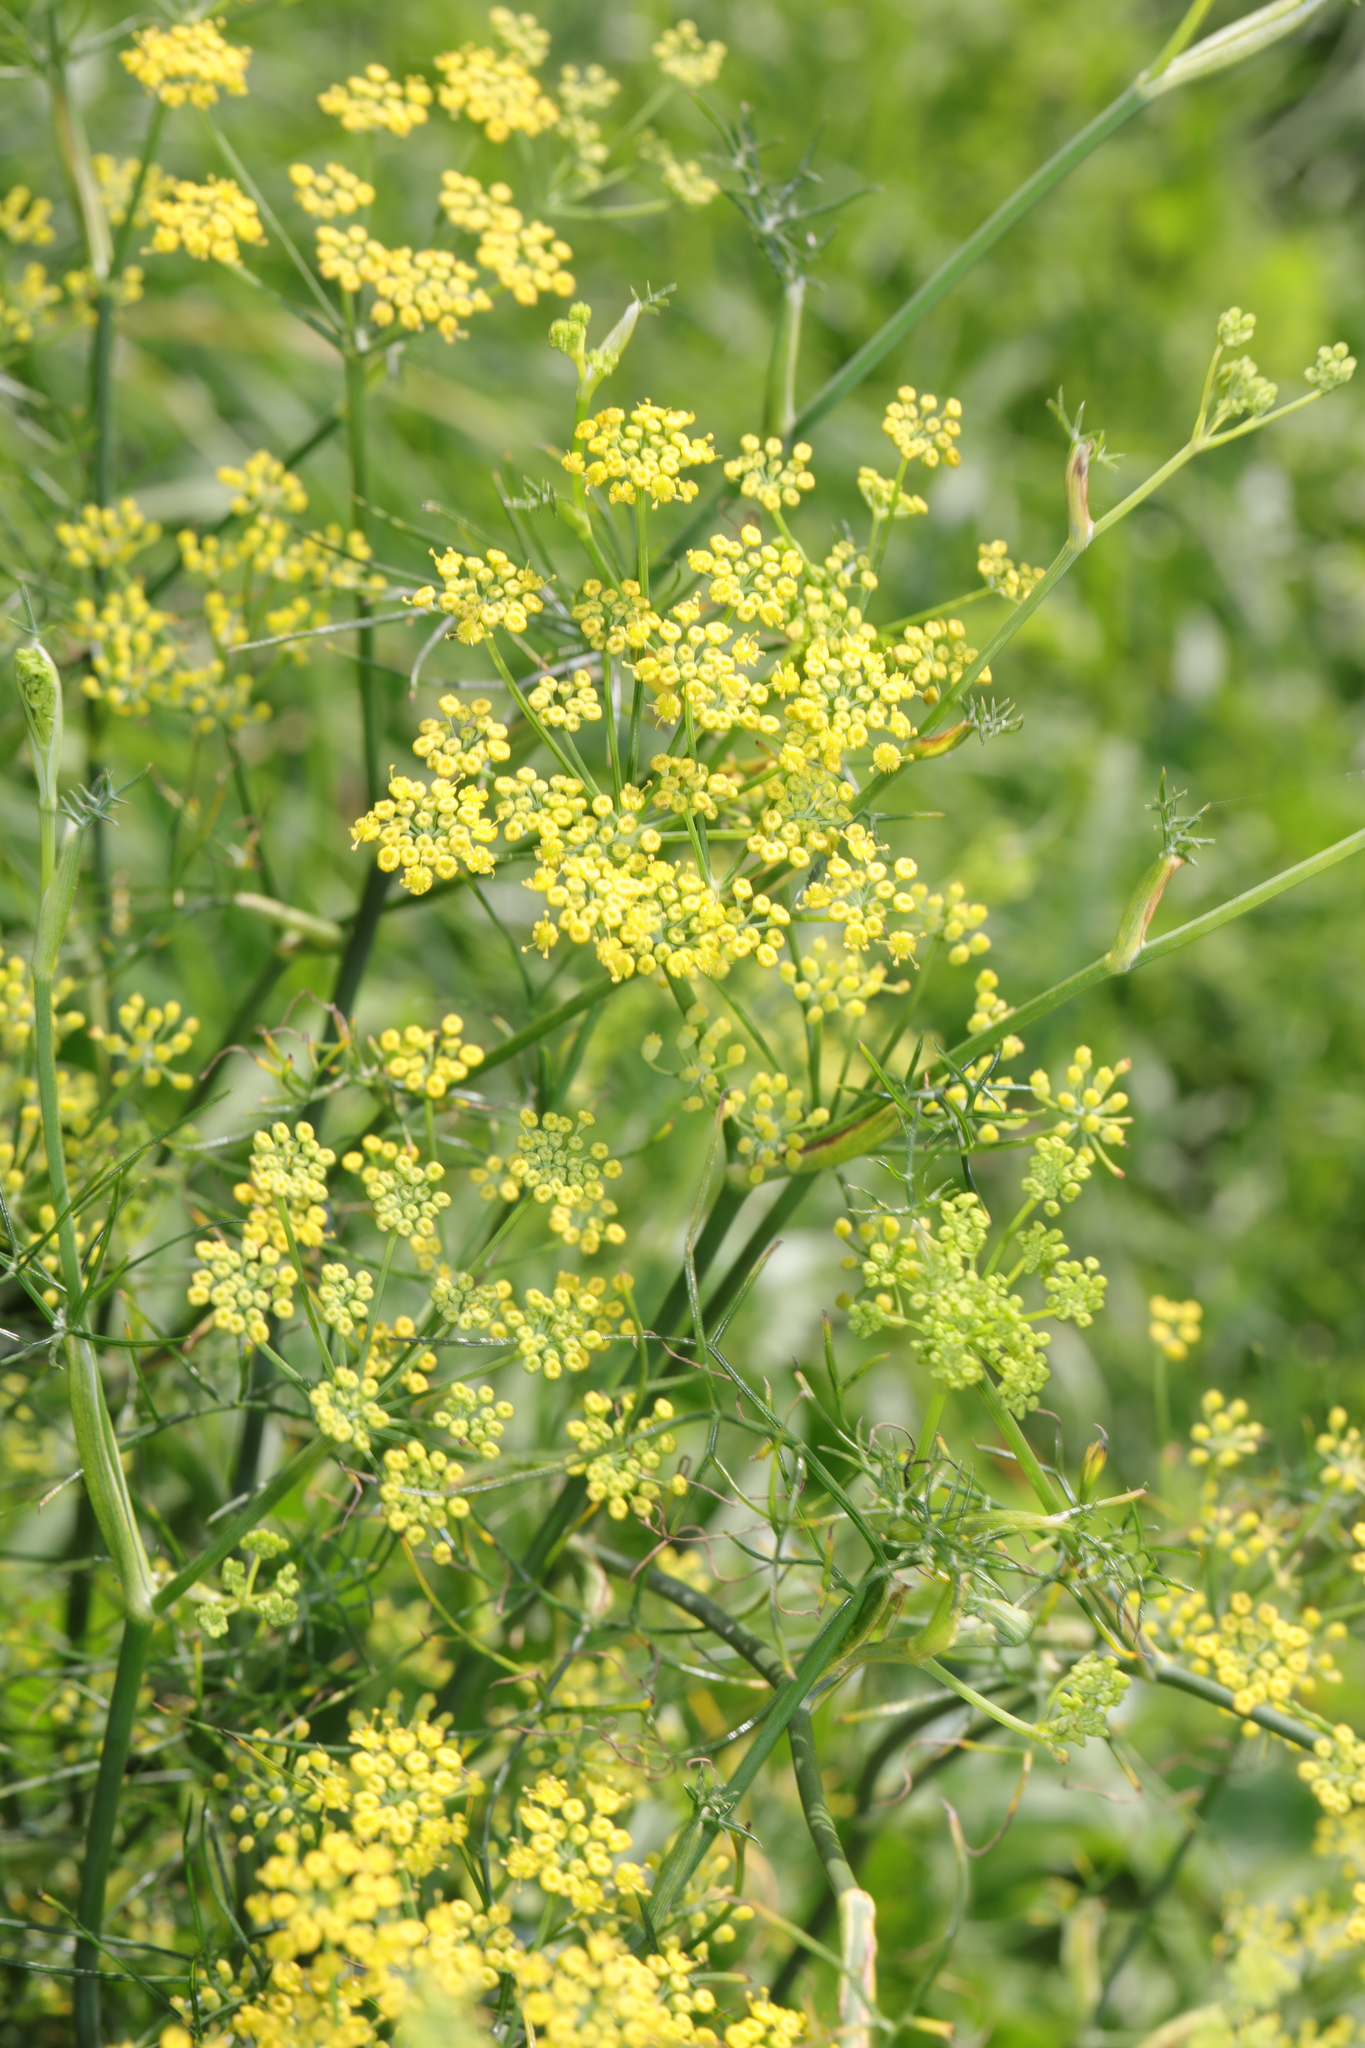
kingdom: Plantae
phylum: Tracheophyta
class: Magnoliopsida
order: Apiales
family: Apiaceae
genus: Foeniculum
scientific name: Foeniculum vulgare
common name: Fennel
